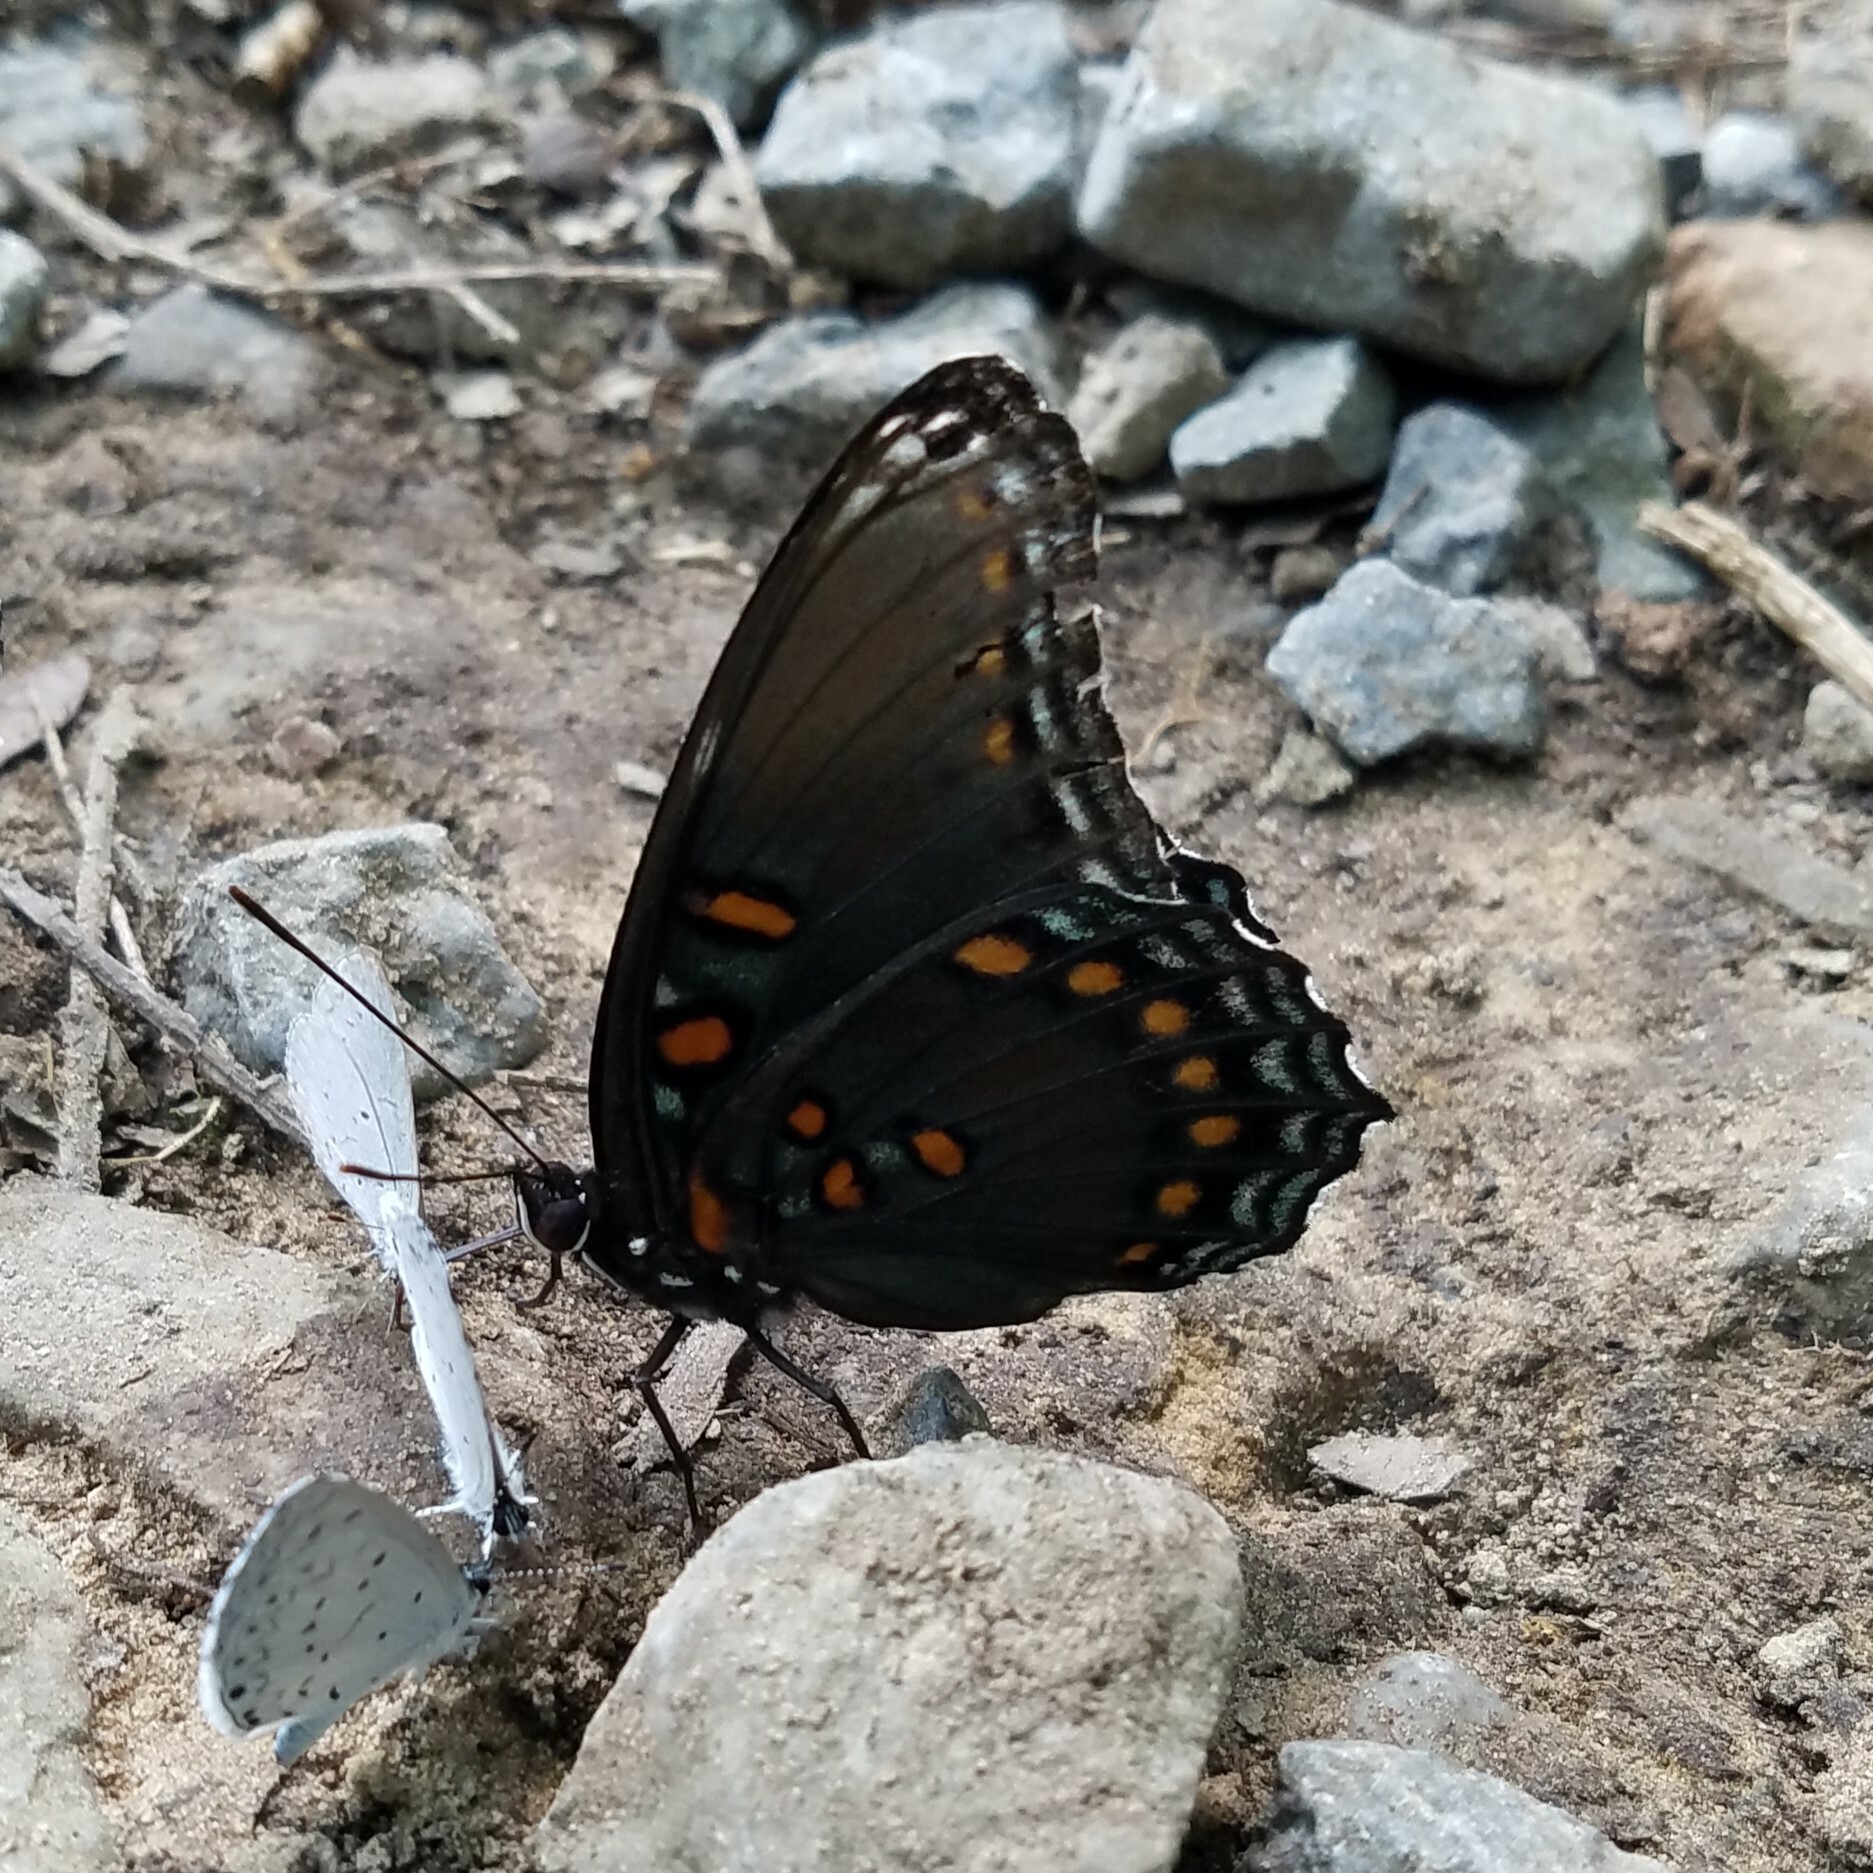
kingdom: Animalia
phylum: Arthropoda
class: Insecta
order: Lepidoptera
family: Nymphalidae
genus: Limenitis
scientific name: Limenitis arthemis
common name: Red-spotted admiral
